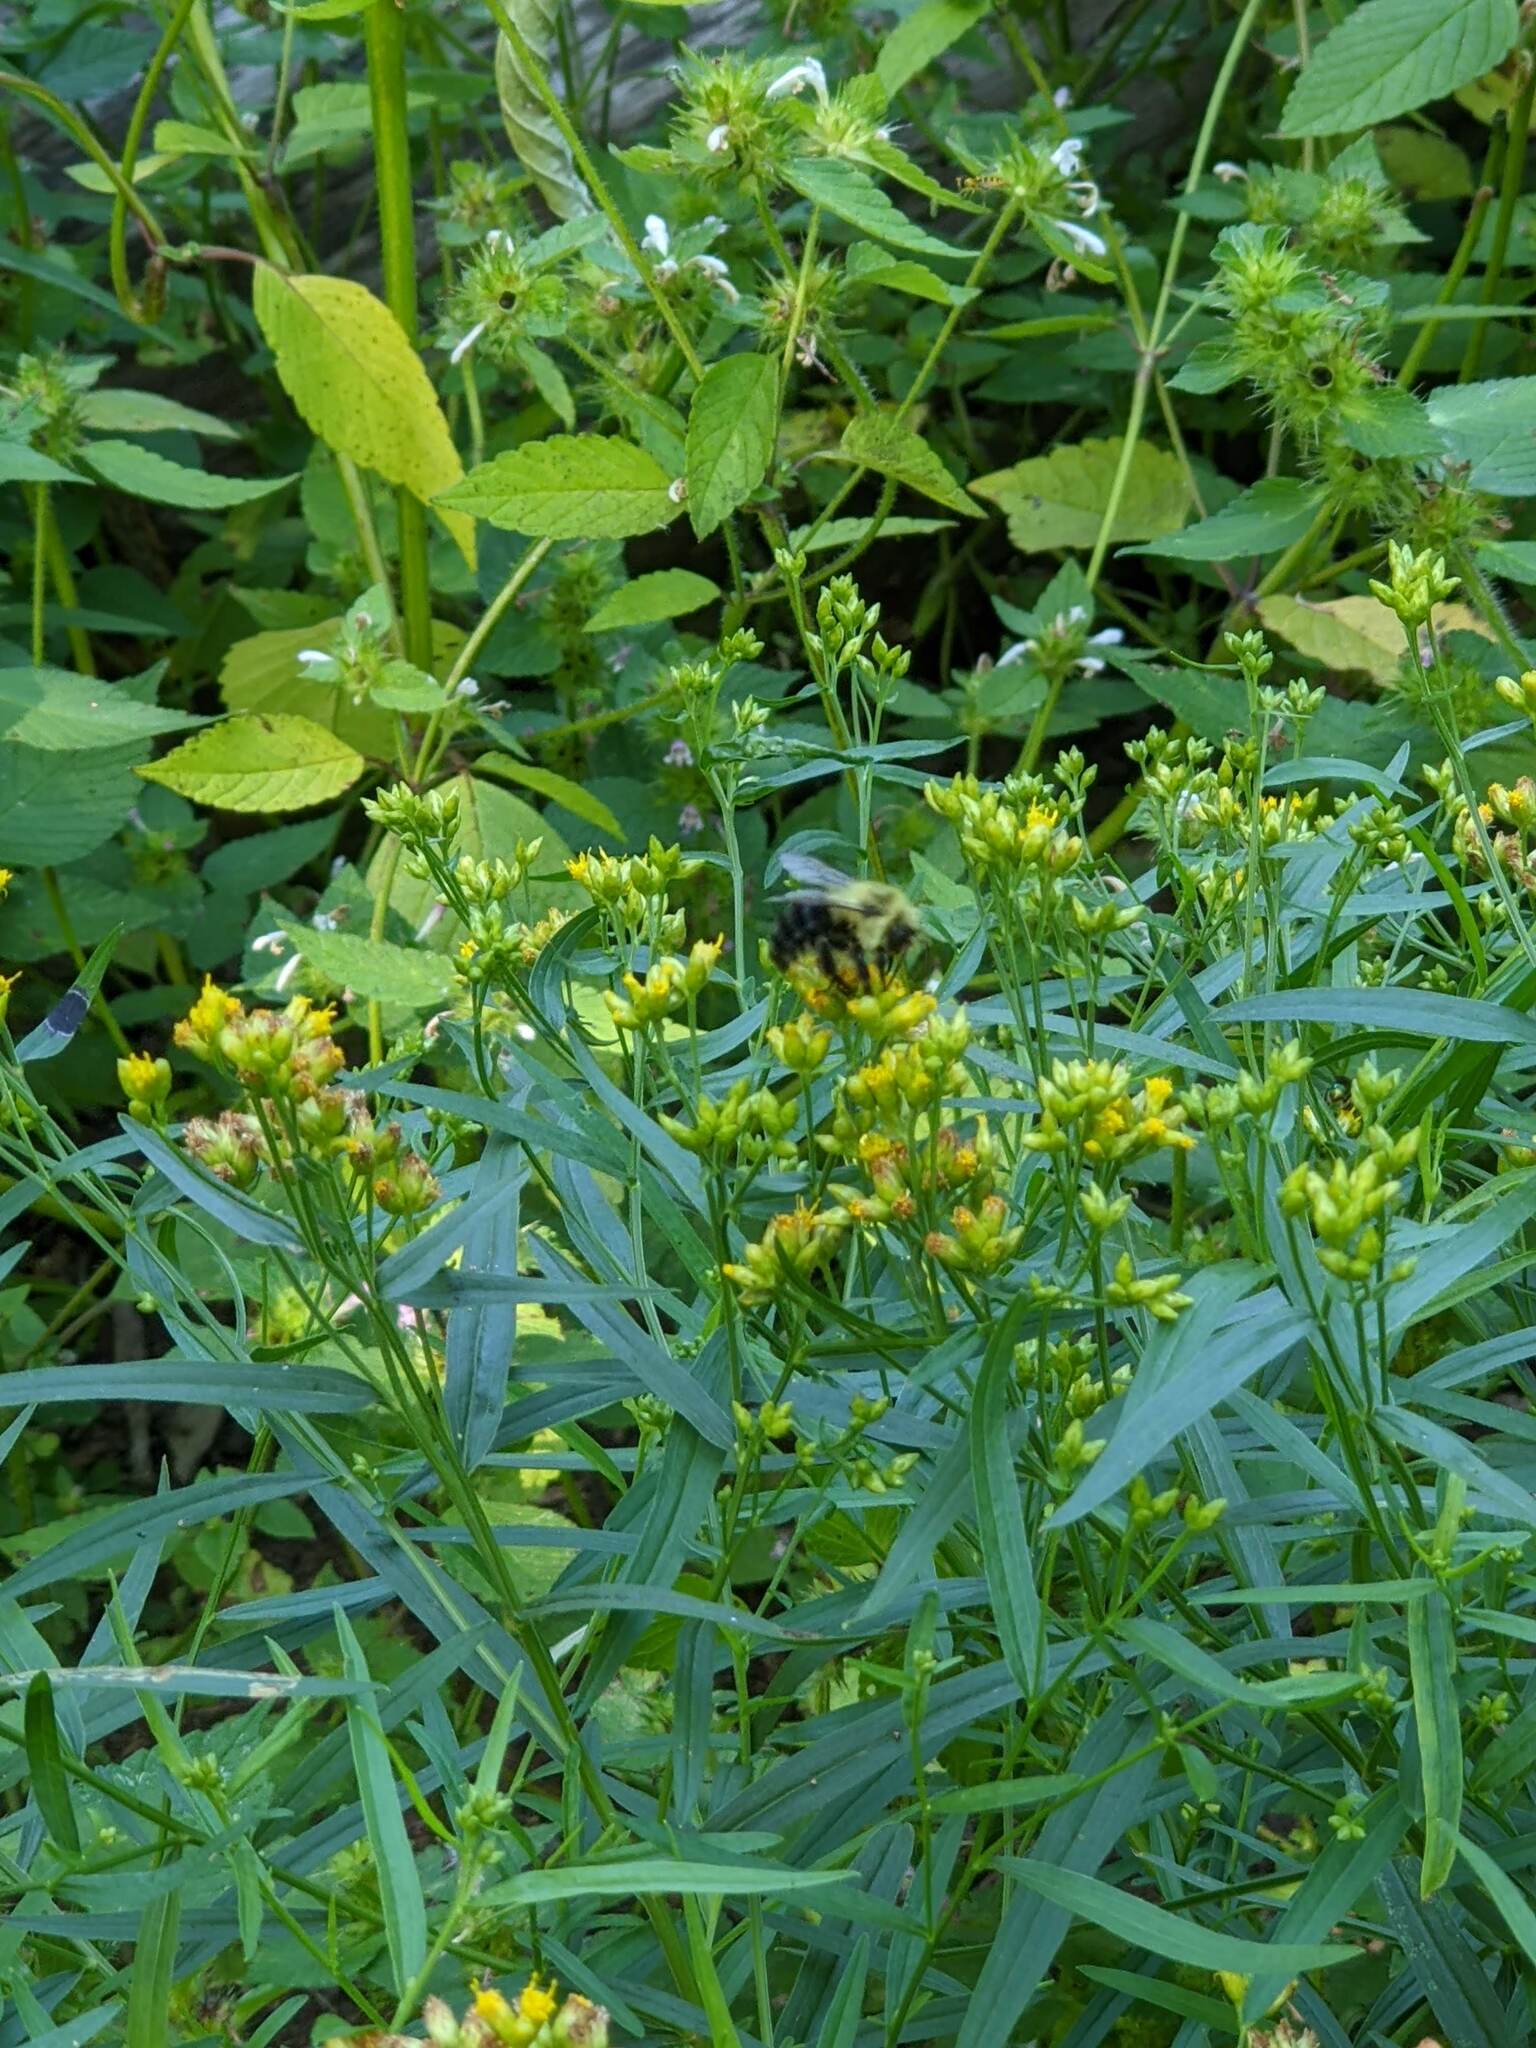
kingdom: Plantae
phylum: Tracheophyta
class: Magnoliopsida
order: Asterales
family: Asteraceae
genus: Euthamia
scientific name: Euthamia graminifolia
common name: Common goldentop
